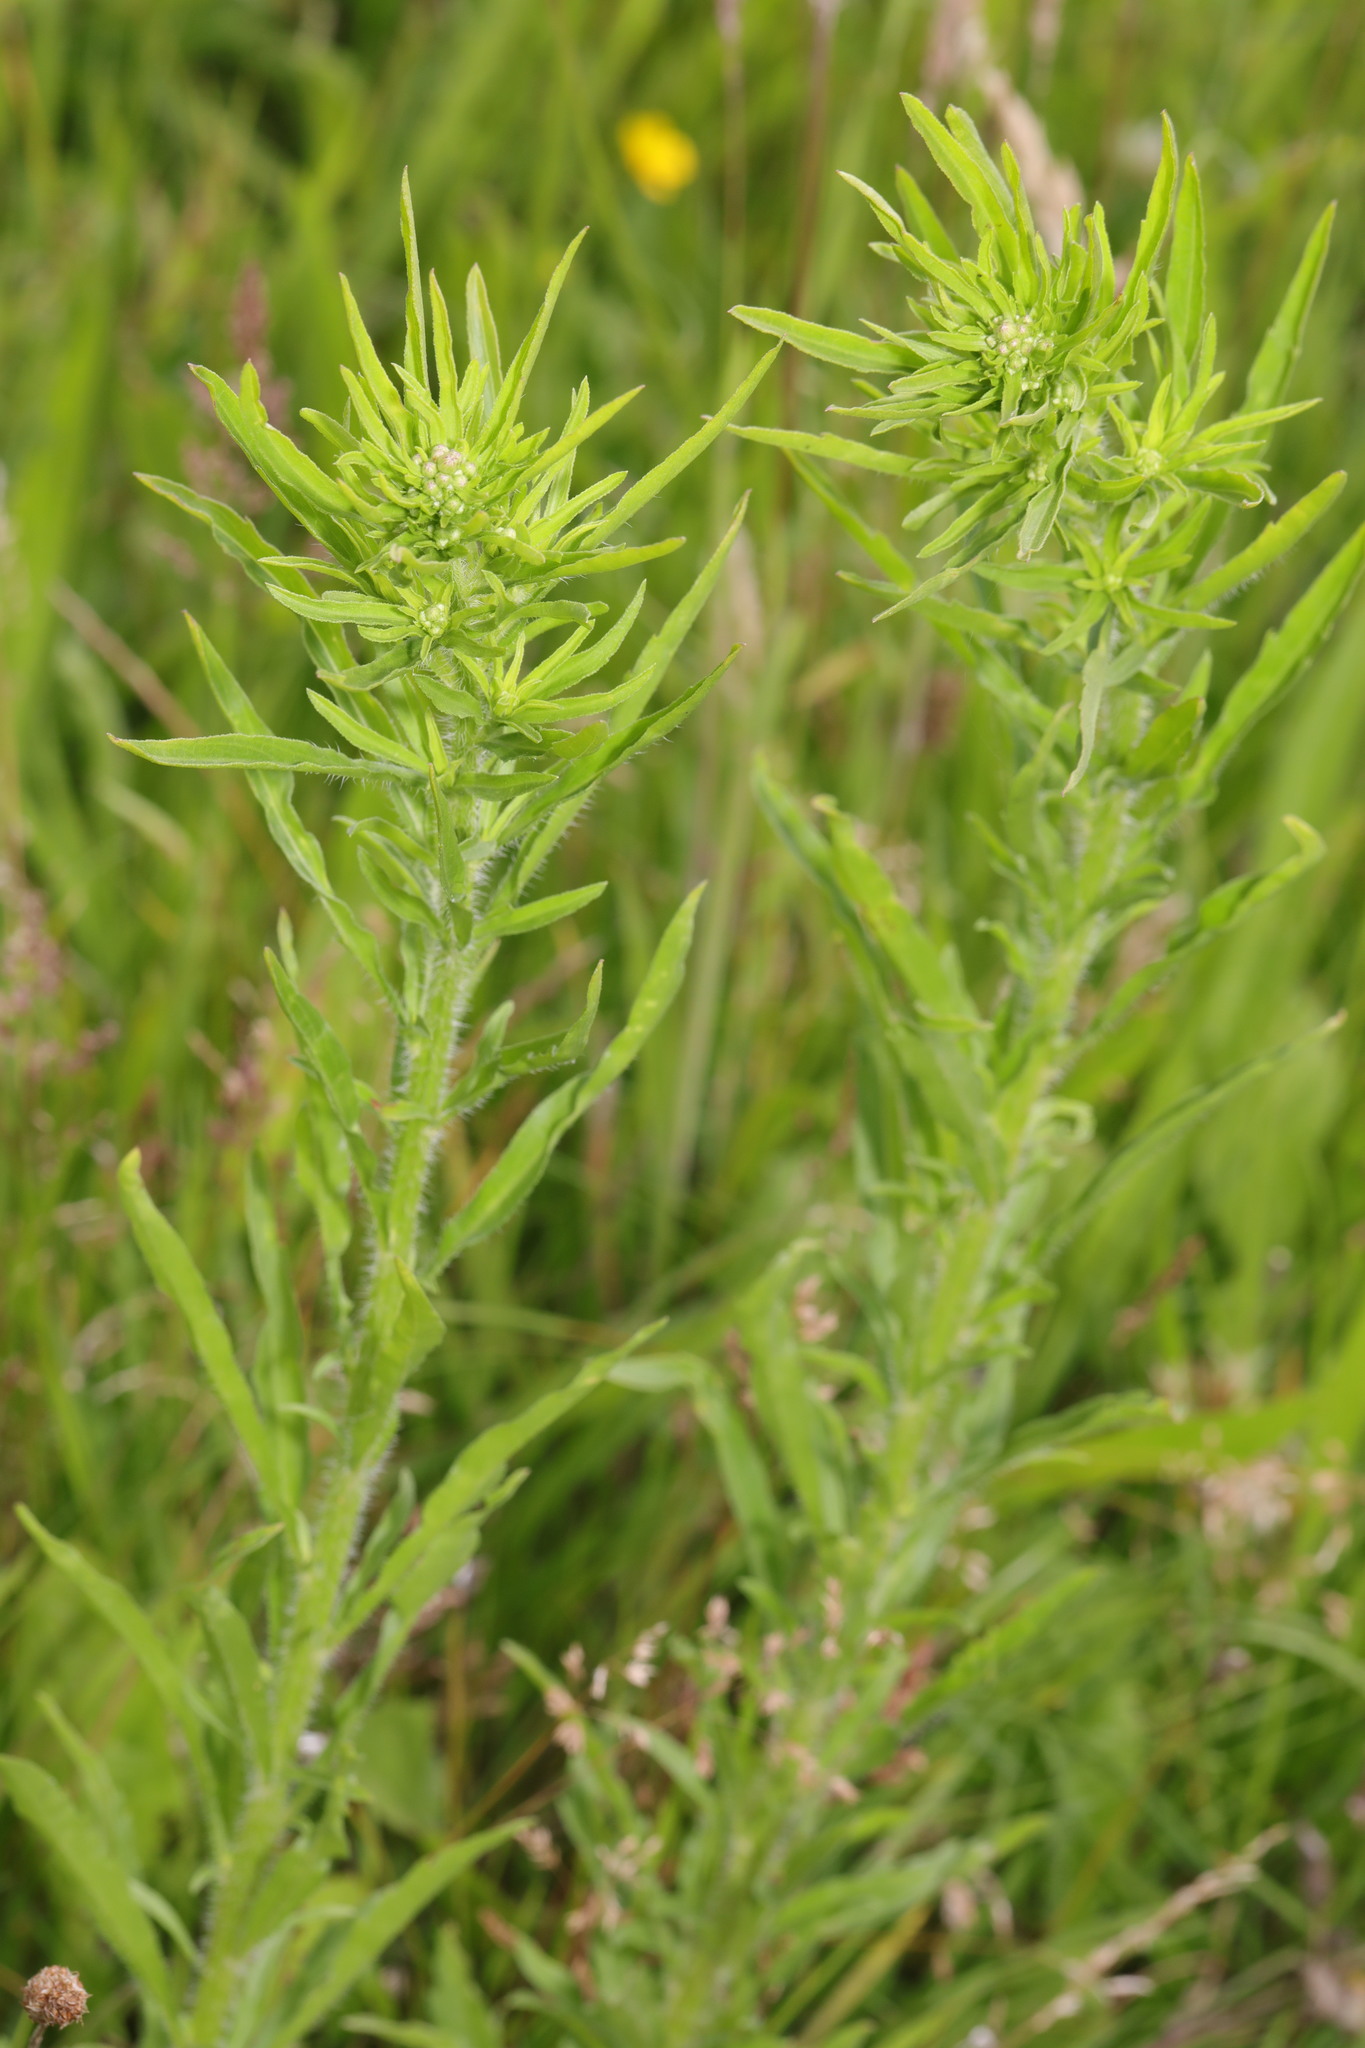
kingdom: Plantae
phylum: Tracheophyta
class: Magnoliopsida
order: Asterales
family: Asteraceae
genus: Erigeron
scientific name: Erigeron canadensis
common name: Canadian fleabane
